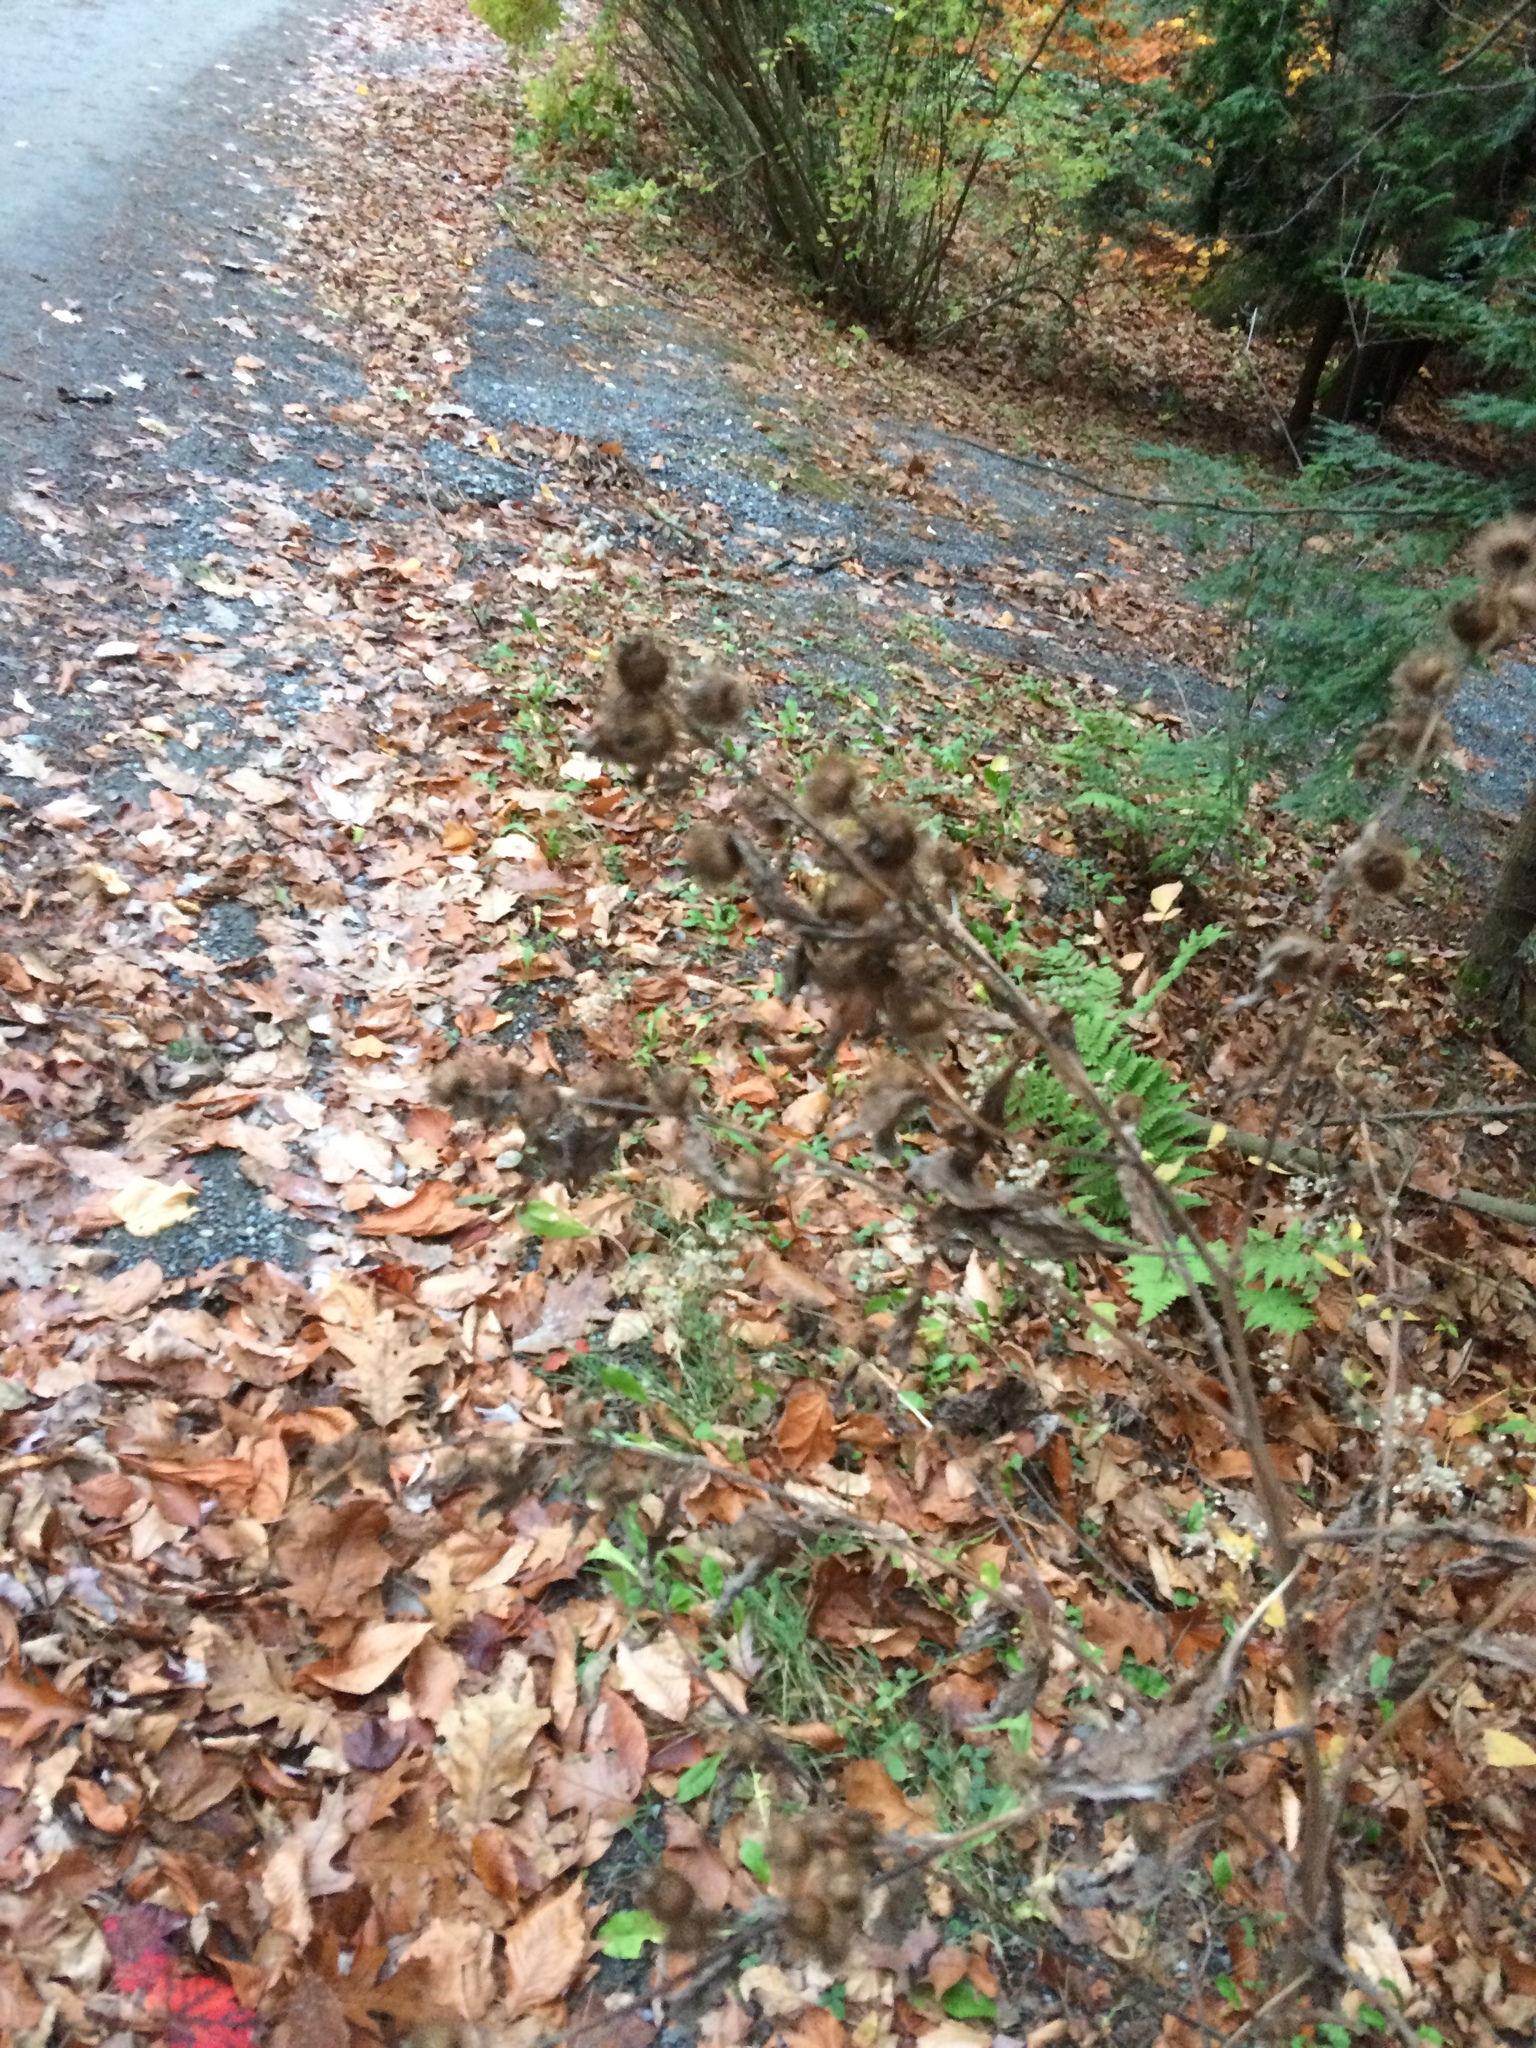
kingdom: Plantae
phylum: Tracheophyta
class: Magnoliopsida
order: Asterales
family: Asteraceae
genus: Arctium
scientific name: Arctium minus
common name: Lesser burdock
